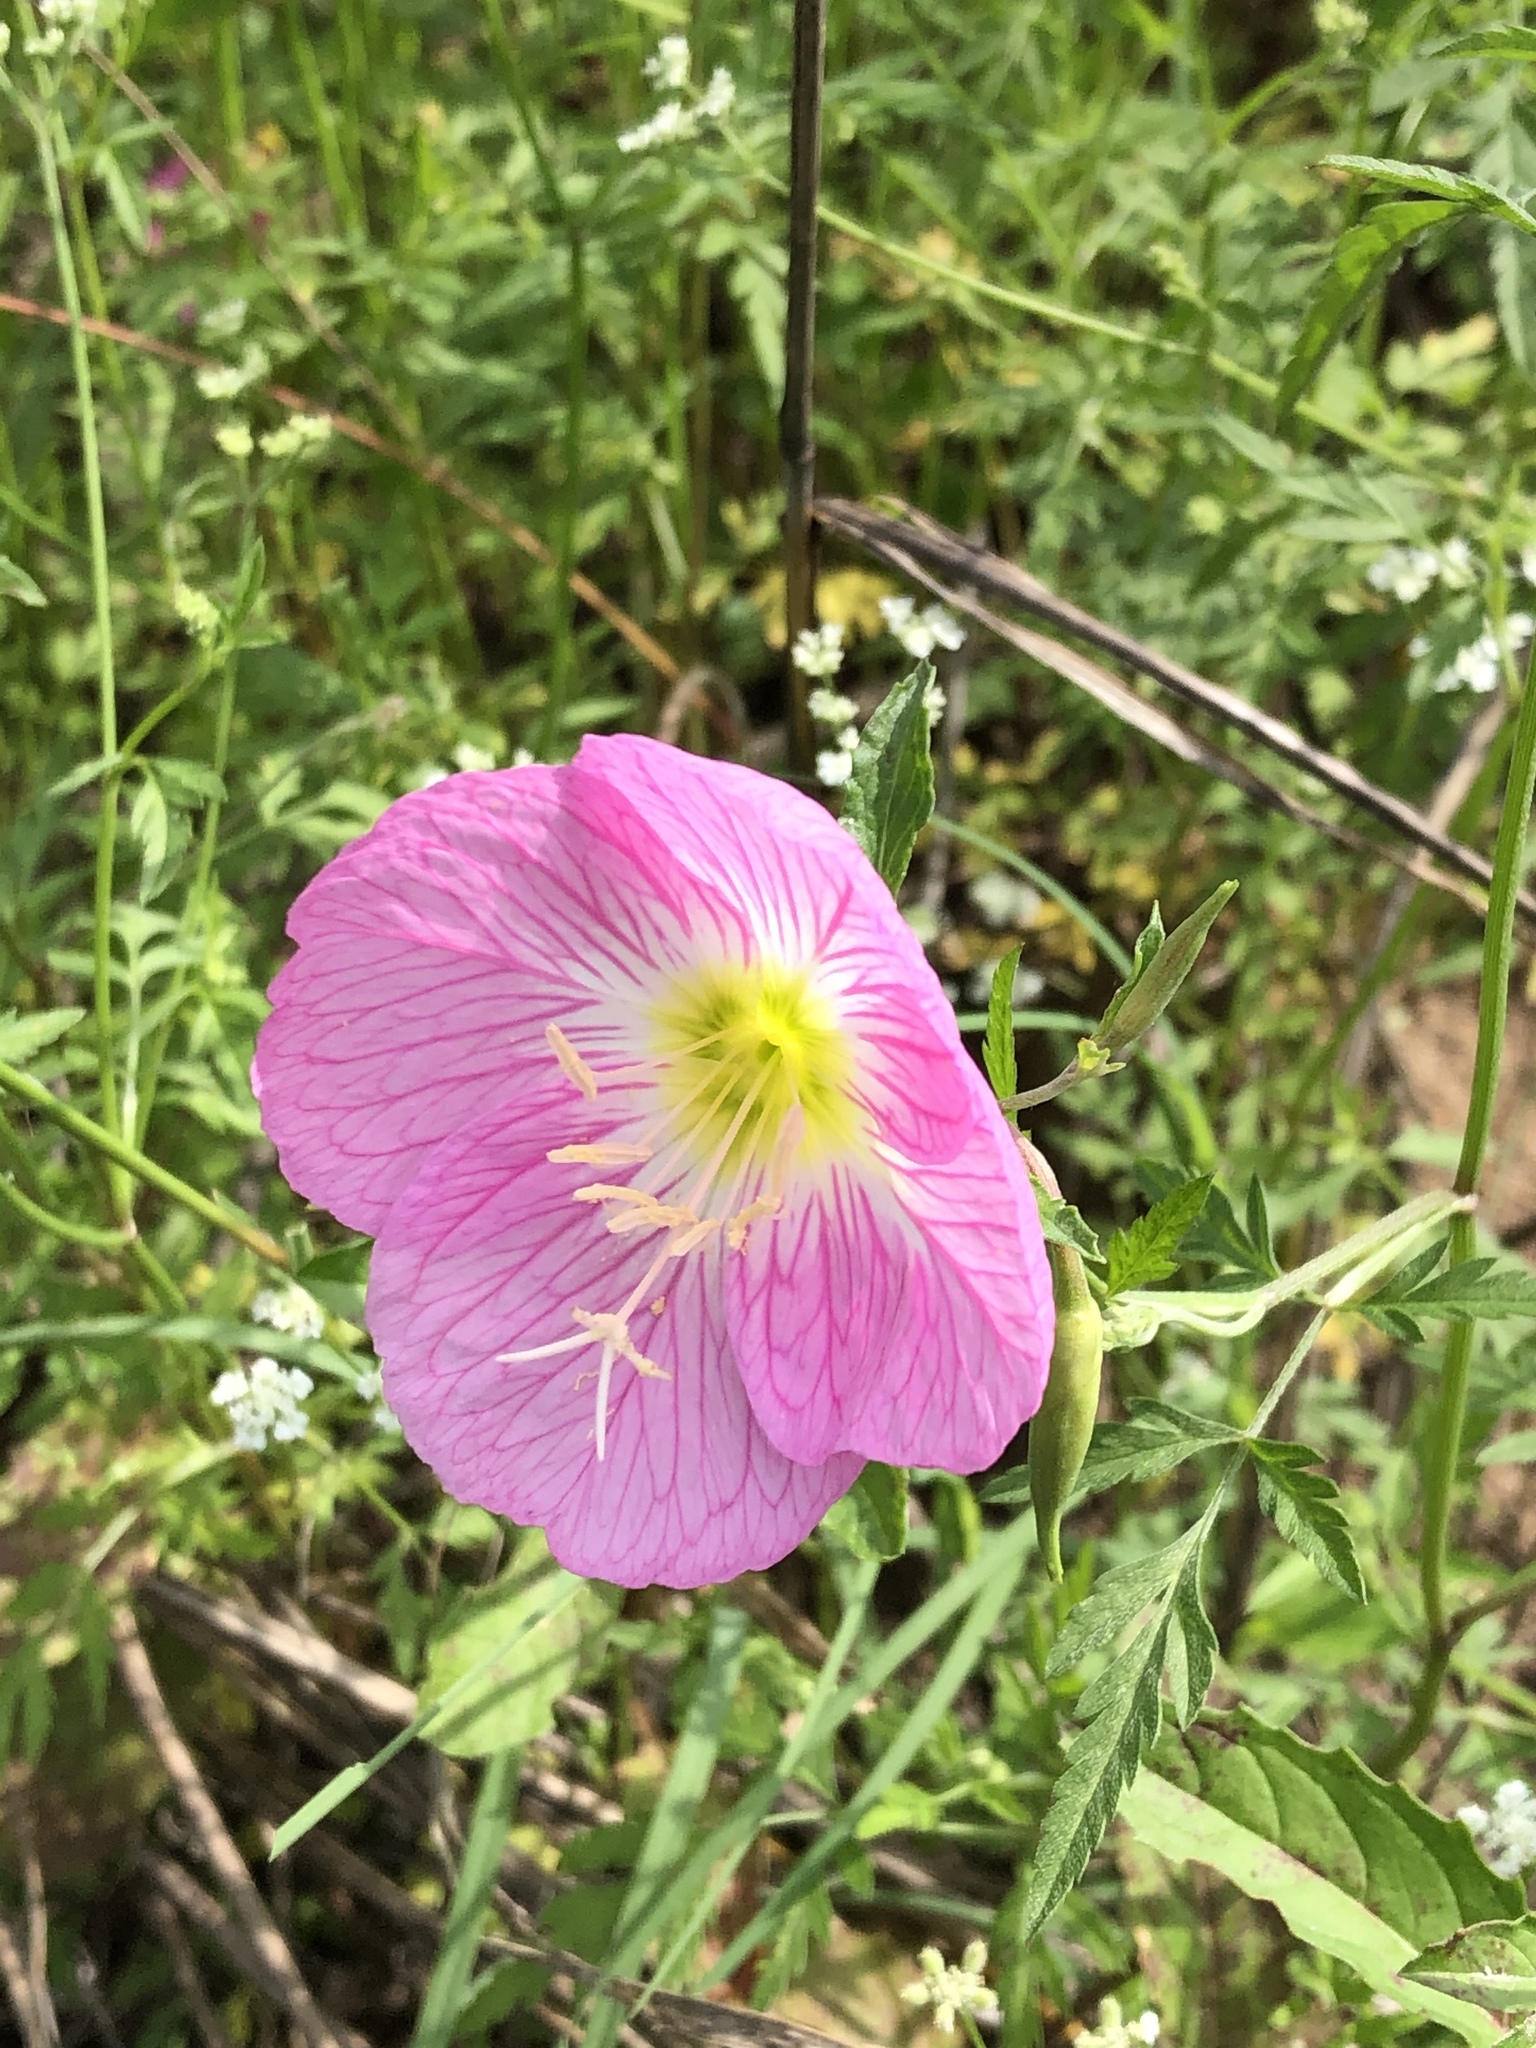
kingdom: Plantae
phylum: Tracheophyta
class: Magnoliopsida
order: Myrtales
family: Onagraceae
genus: Oenothera
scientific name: Oenothera speciosa
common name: White evening-primrose
